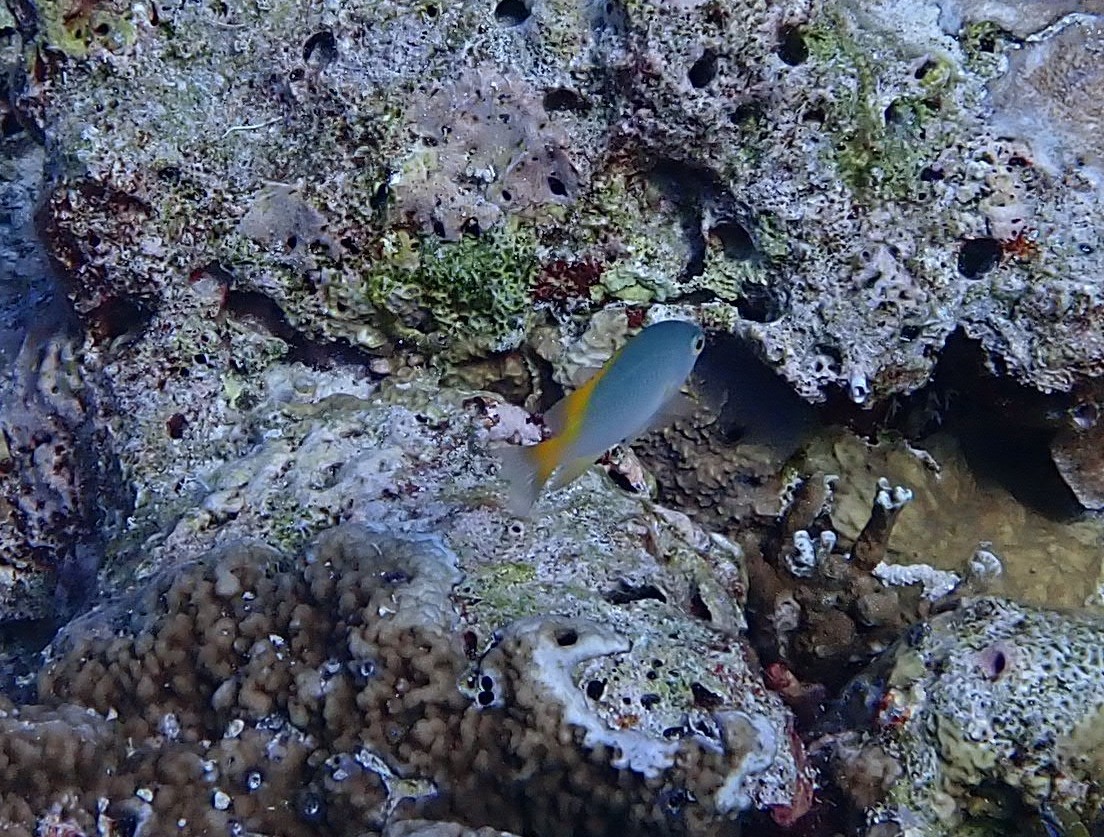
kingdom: Animalia
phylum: Chordata
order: Perciformes
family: Pomacentridae
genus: Pomacentrus
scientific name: Pomacentrus lepidogenys
